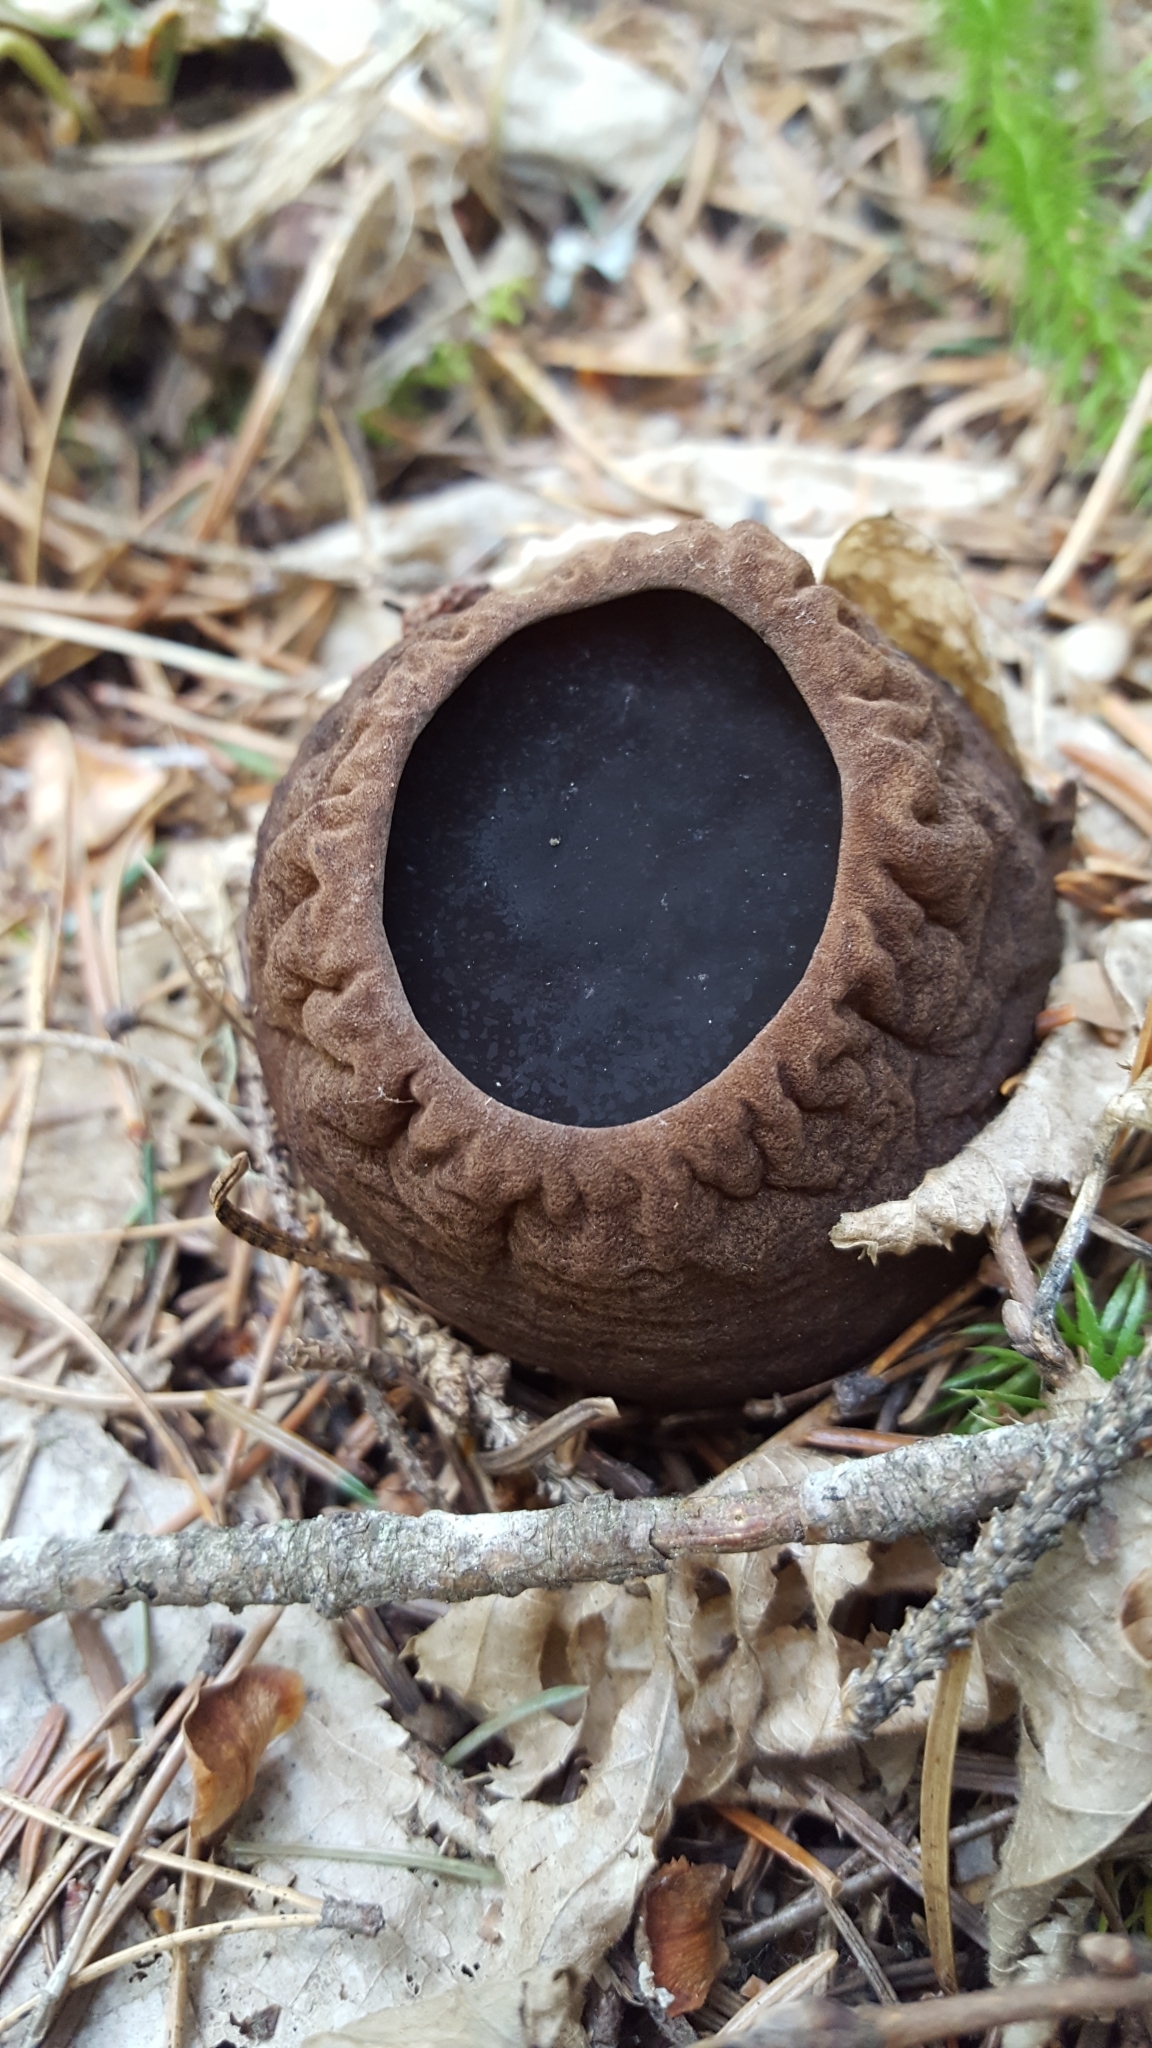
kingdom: Fungi
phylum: Ascomycota
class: Pezizomycetes
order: Pezizales
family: Sarcosomataceae
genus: Sarcosoma
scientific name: Sarcosoma globosum
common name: Charred-pancake cup
